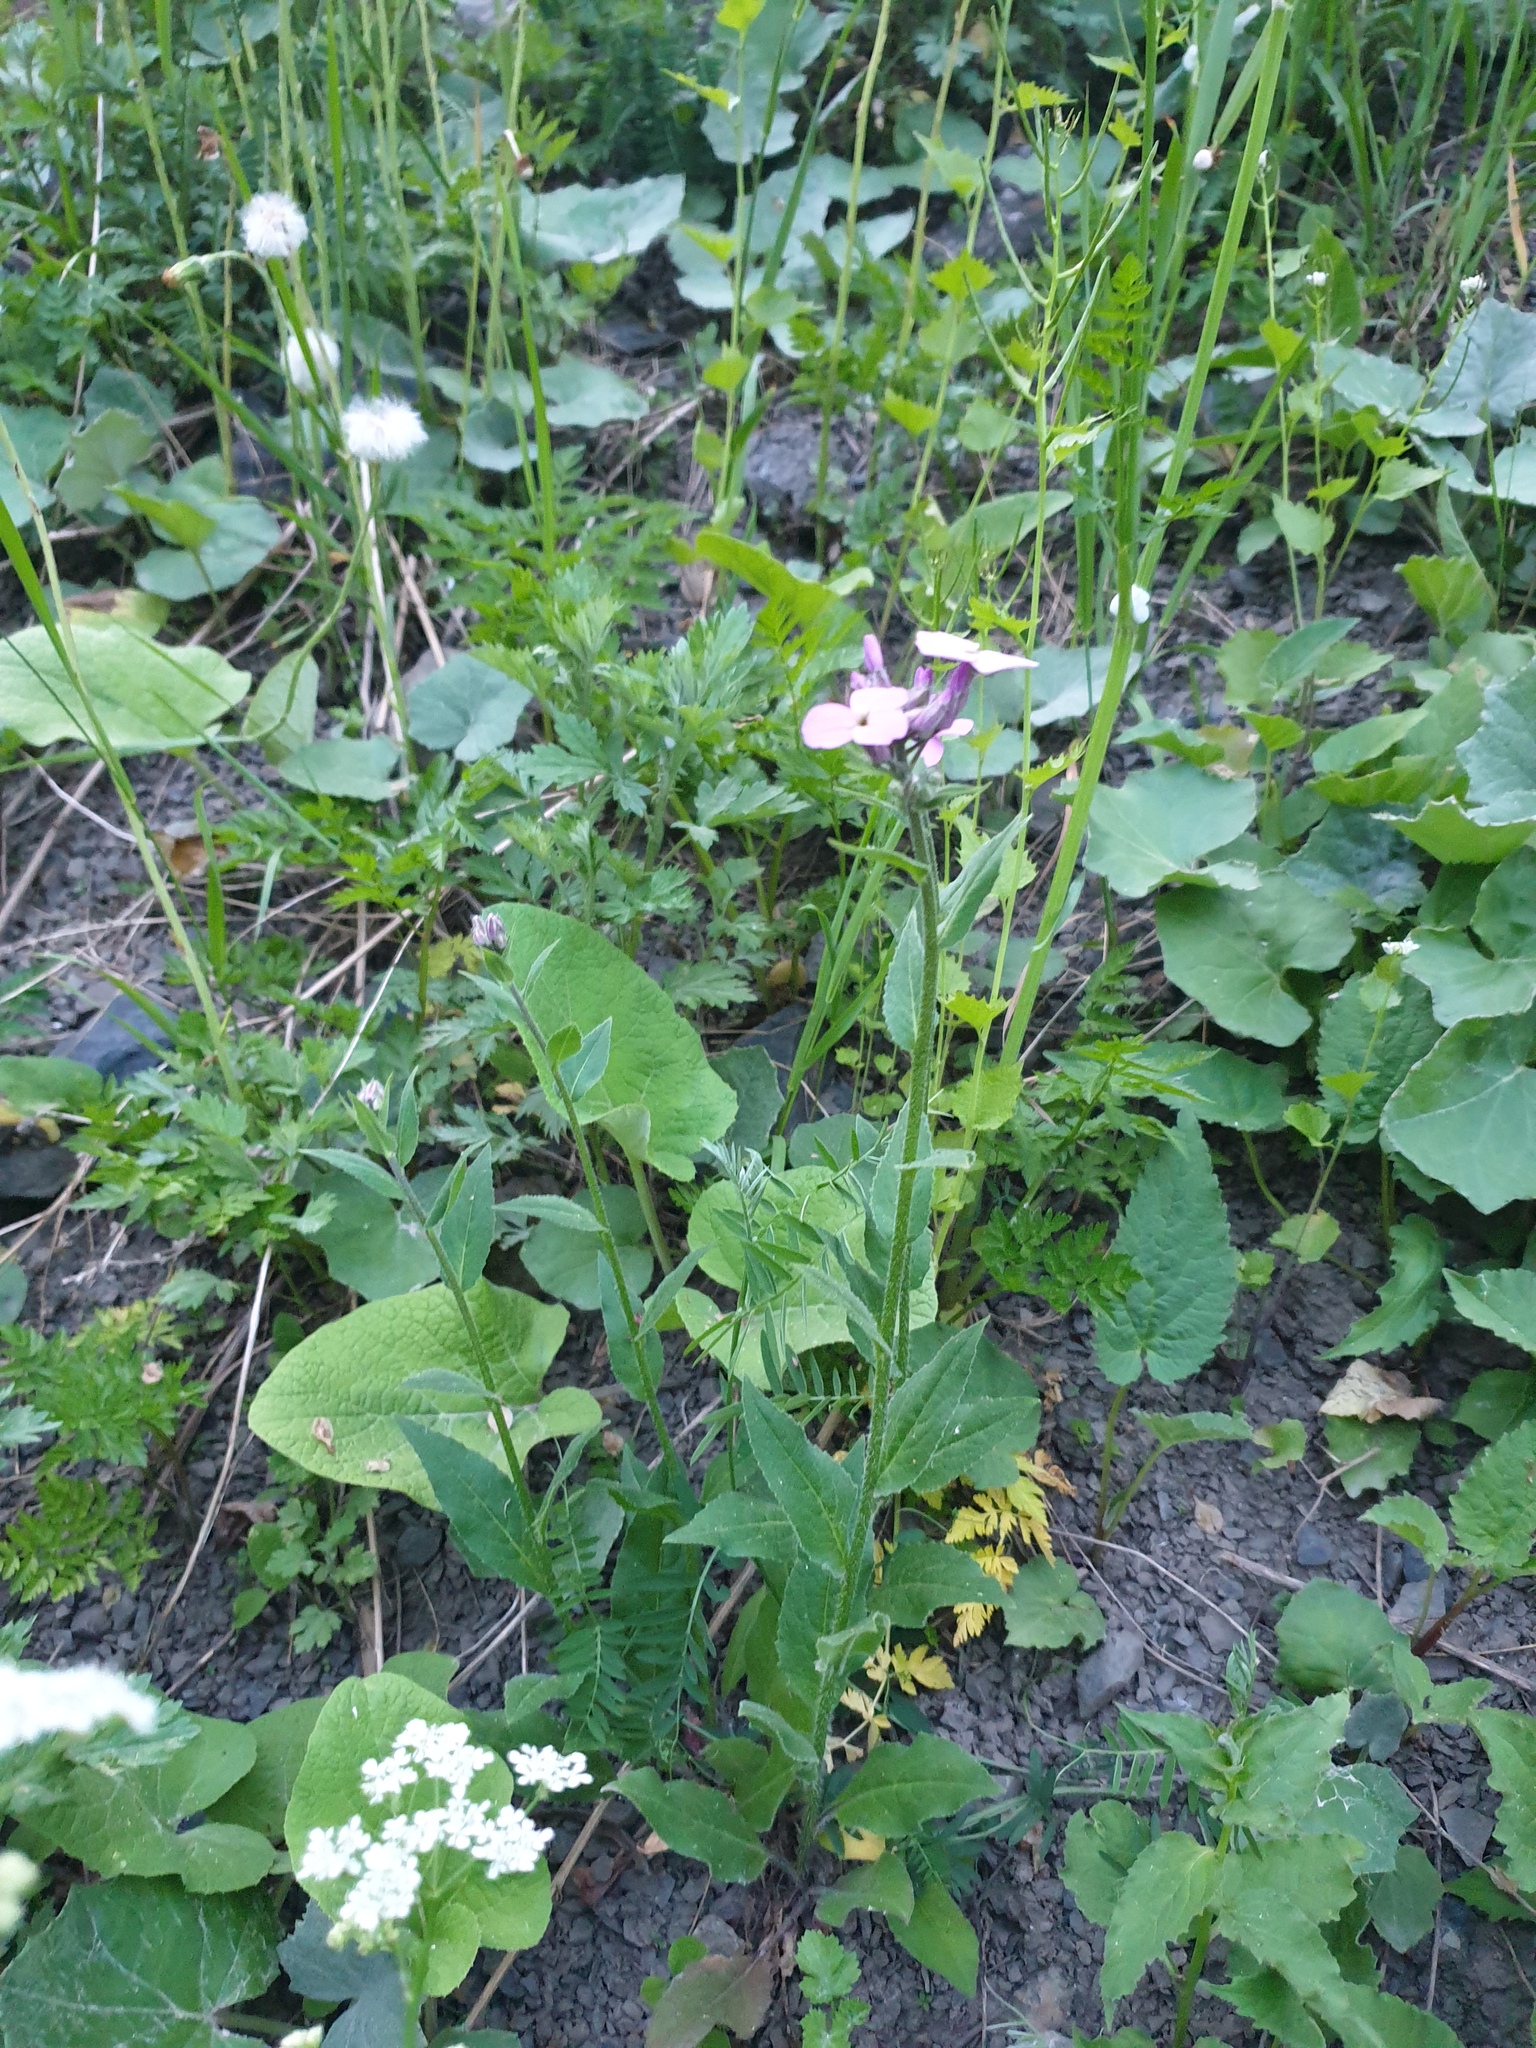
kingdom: Plantae
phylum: Tracheophyta
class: Magnoliopsida
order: Brassicales
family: Brassicaceae
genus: Hesperis
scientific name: Hesperis matronalis
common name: Dame's-violet
